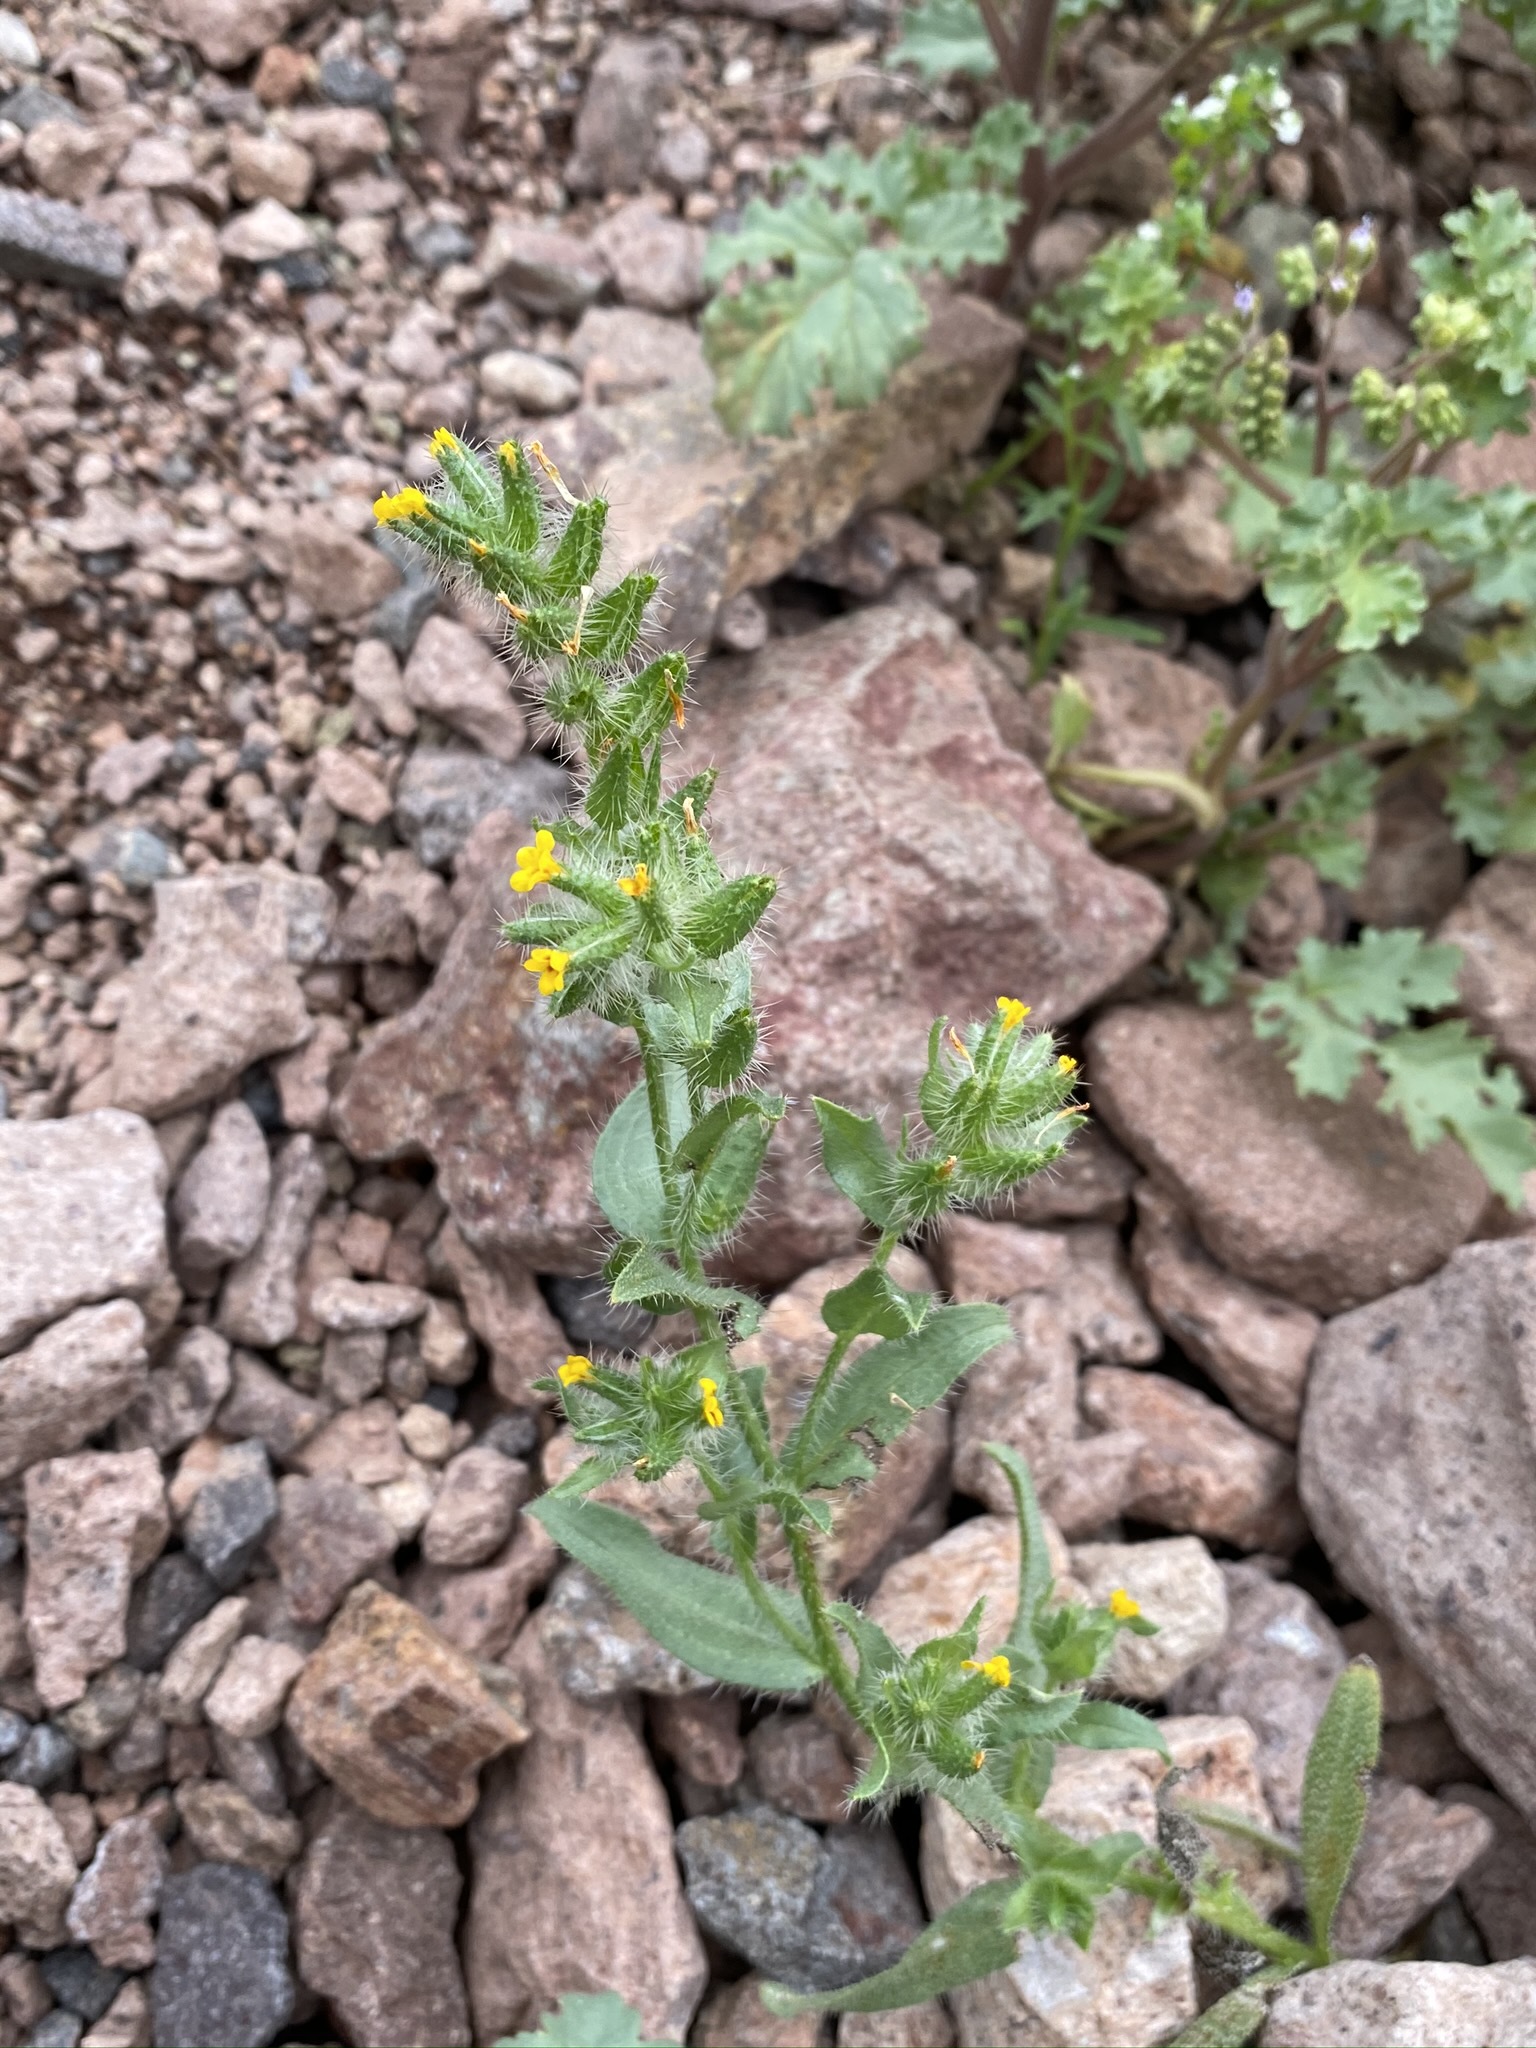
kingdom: Plantae
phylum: Tracheophyta
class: Magnoliopsida
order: Boraginales
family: Boraginaceae
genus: Amsinckia
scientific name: Amsinckia tessellata
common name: Tessellate fiddleneck
